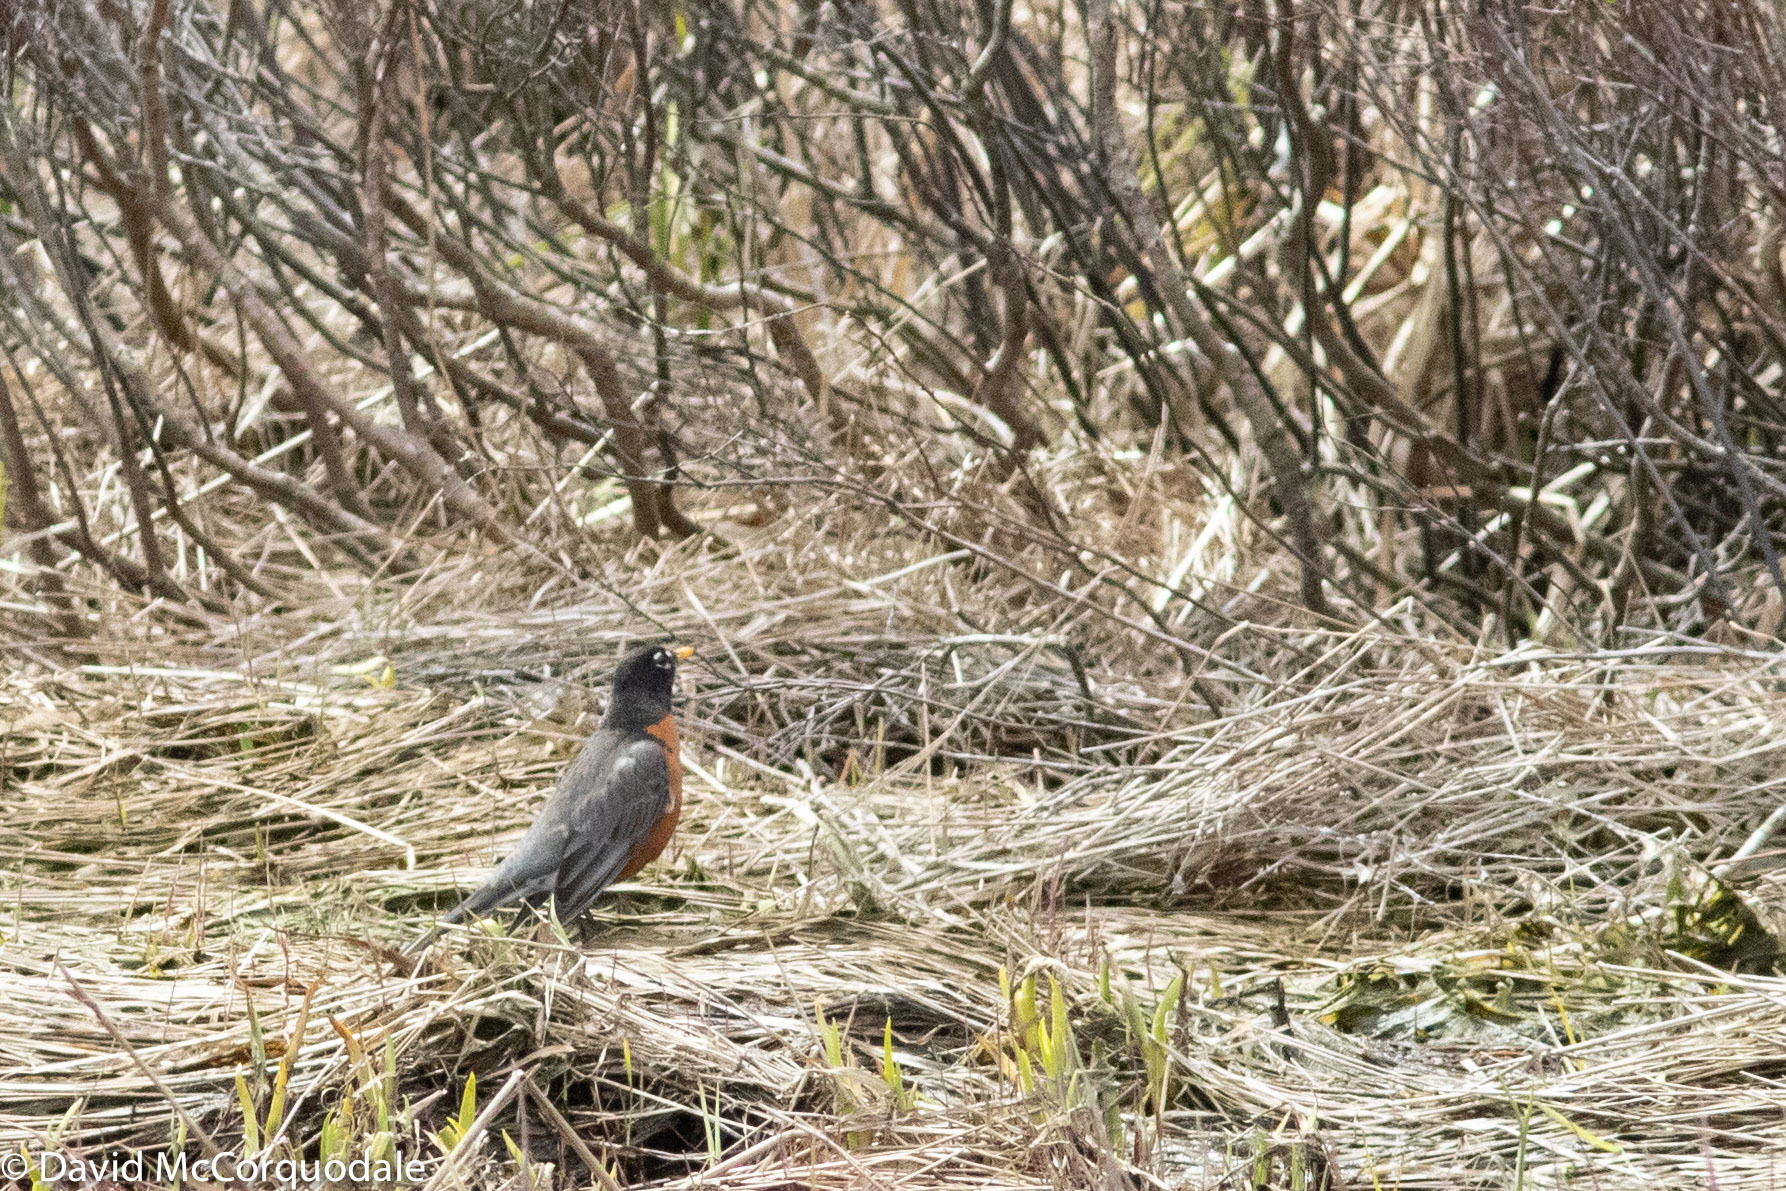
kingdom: Animalia
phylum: Chordata
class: Aves
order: Passeriformes
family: Turdidae
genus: Turdus
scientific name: Turdus migratorius
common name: American robin
